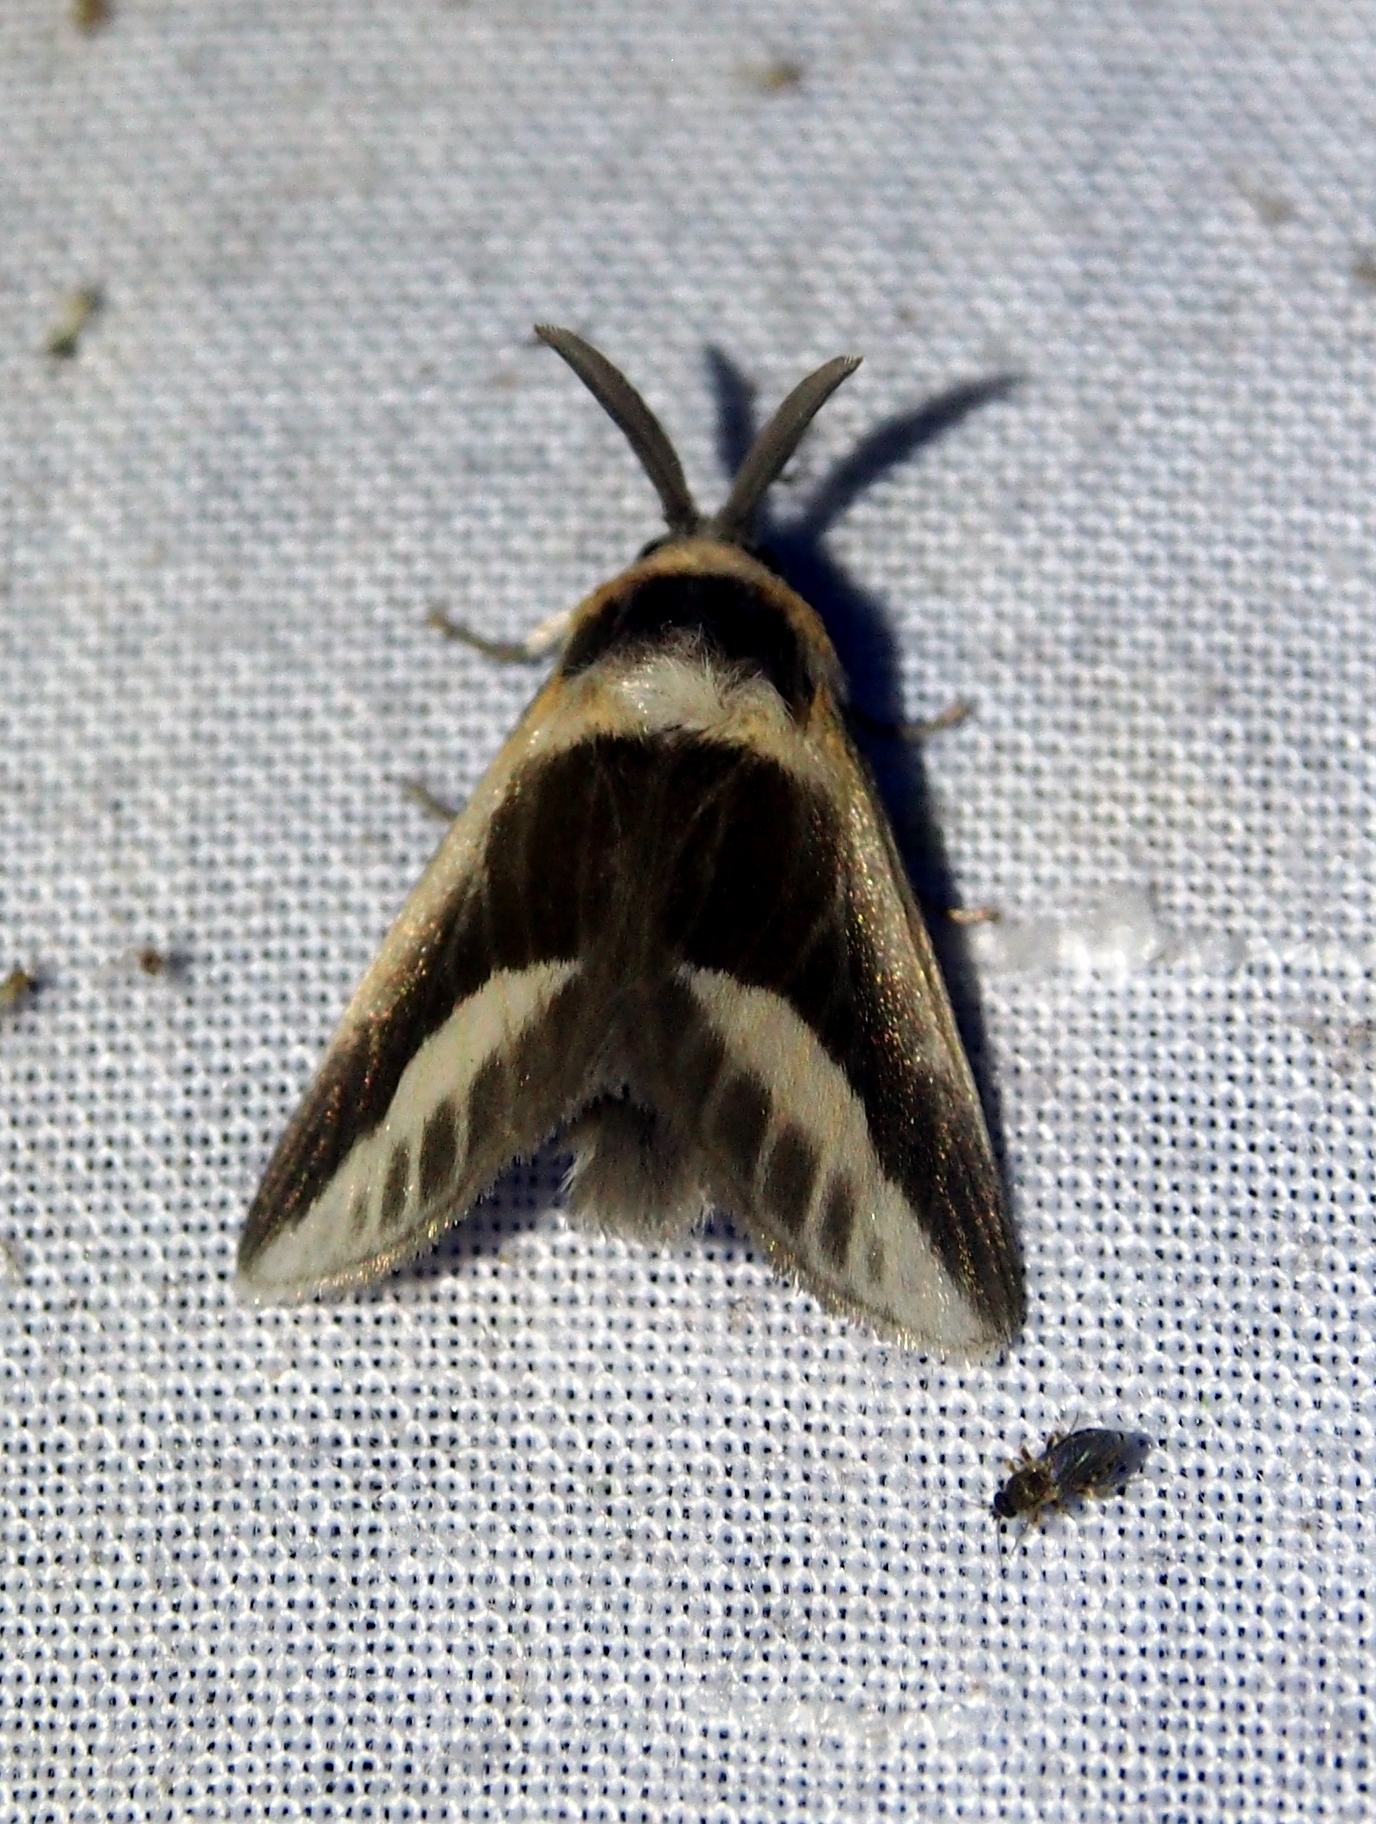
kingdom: Animalia
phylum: Arthropoda
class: Insecta
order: Lepidoptera
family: Megalopygidae
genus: Mesoscia
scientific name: Mesoscia dyari
